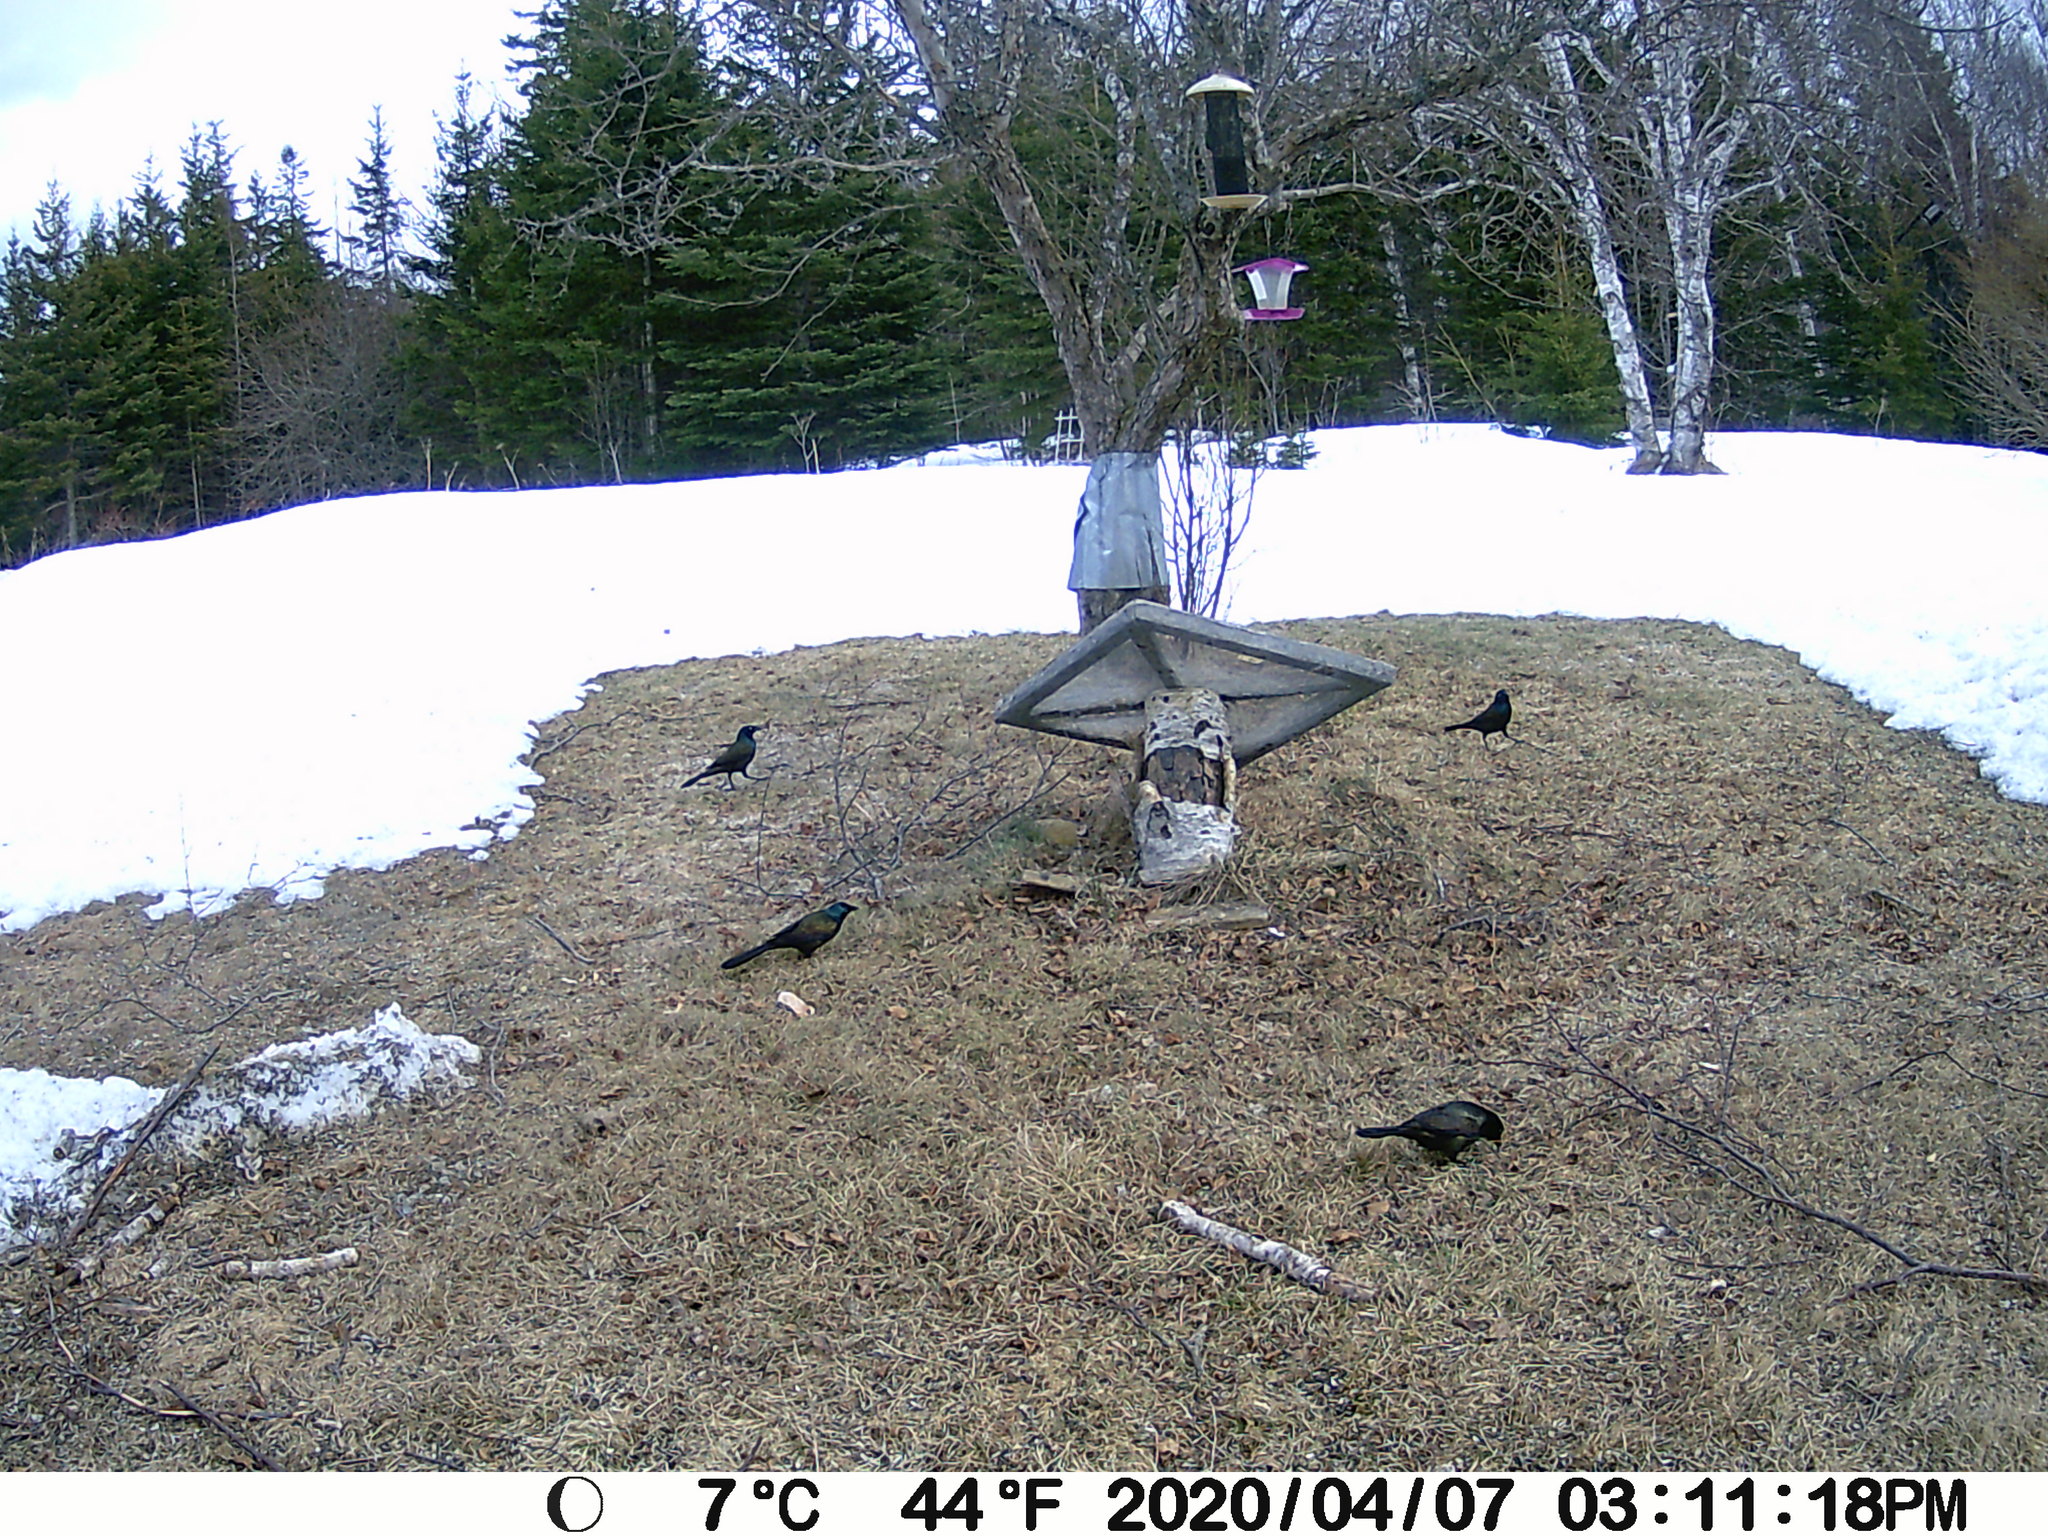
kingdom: Animalia
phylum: Chordata
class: Aves
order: Passeriformes
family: Icteridae
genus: Quiscalus
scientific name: Quiscalus quiscula
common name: Common grackle
